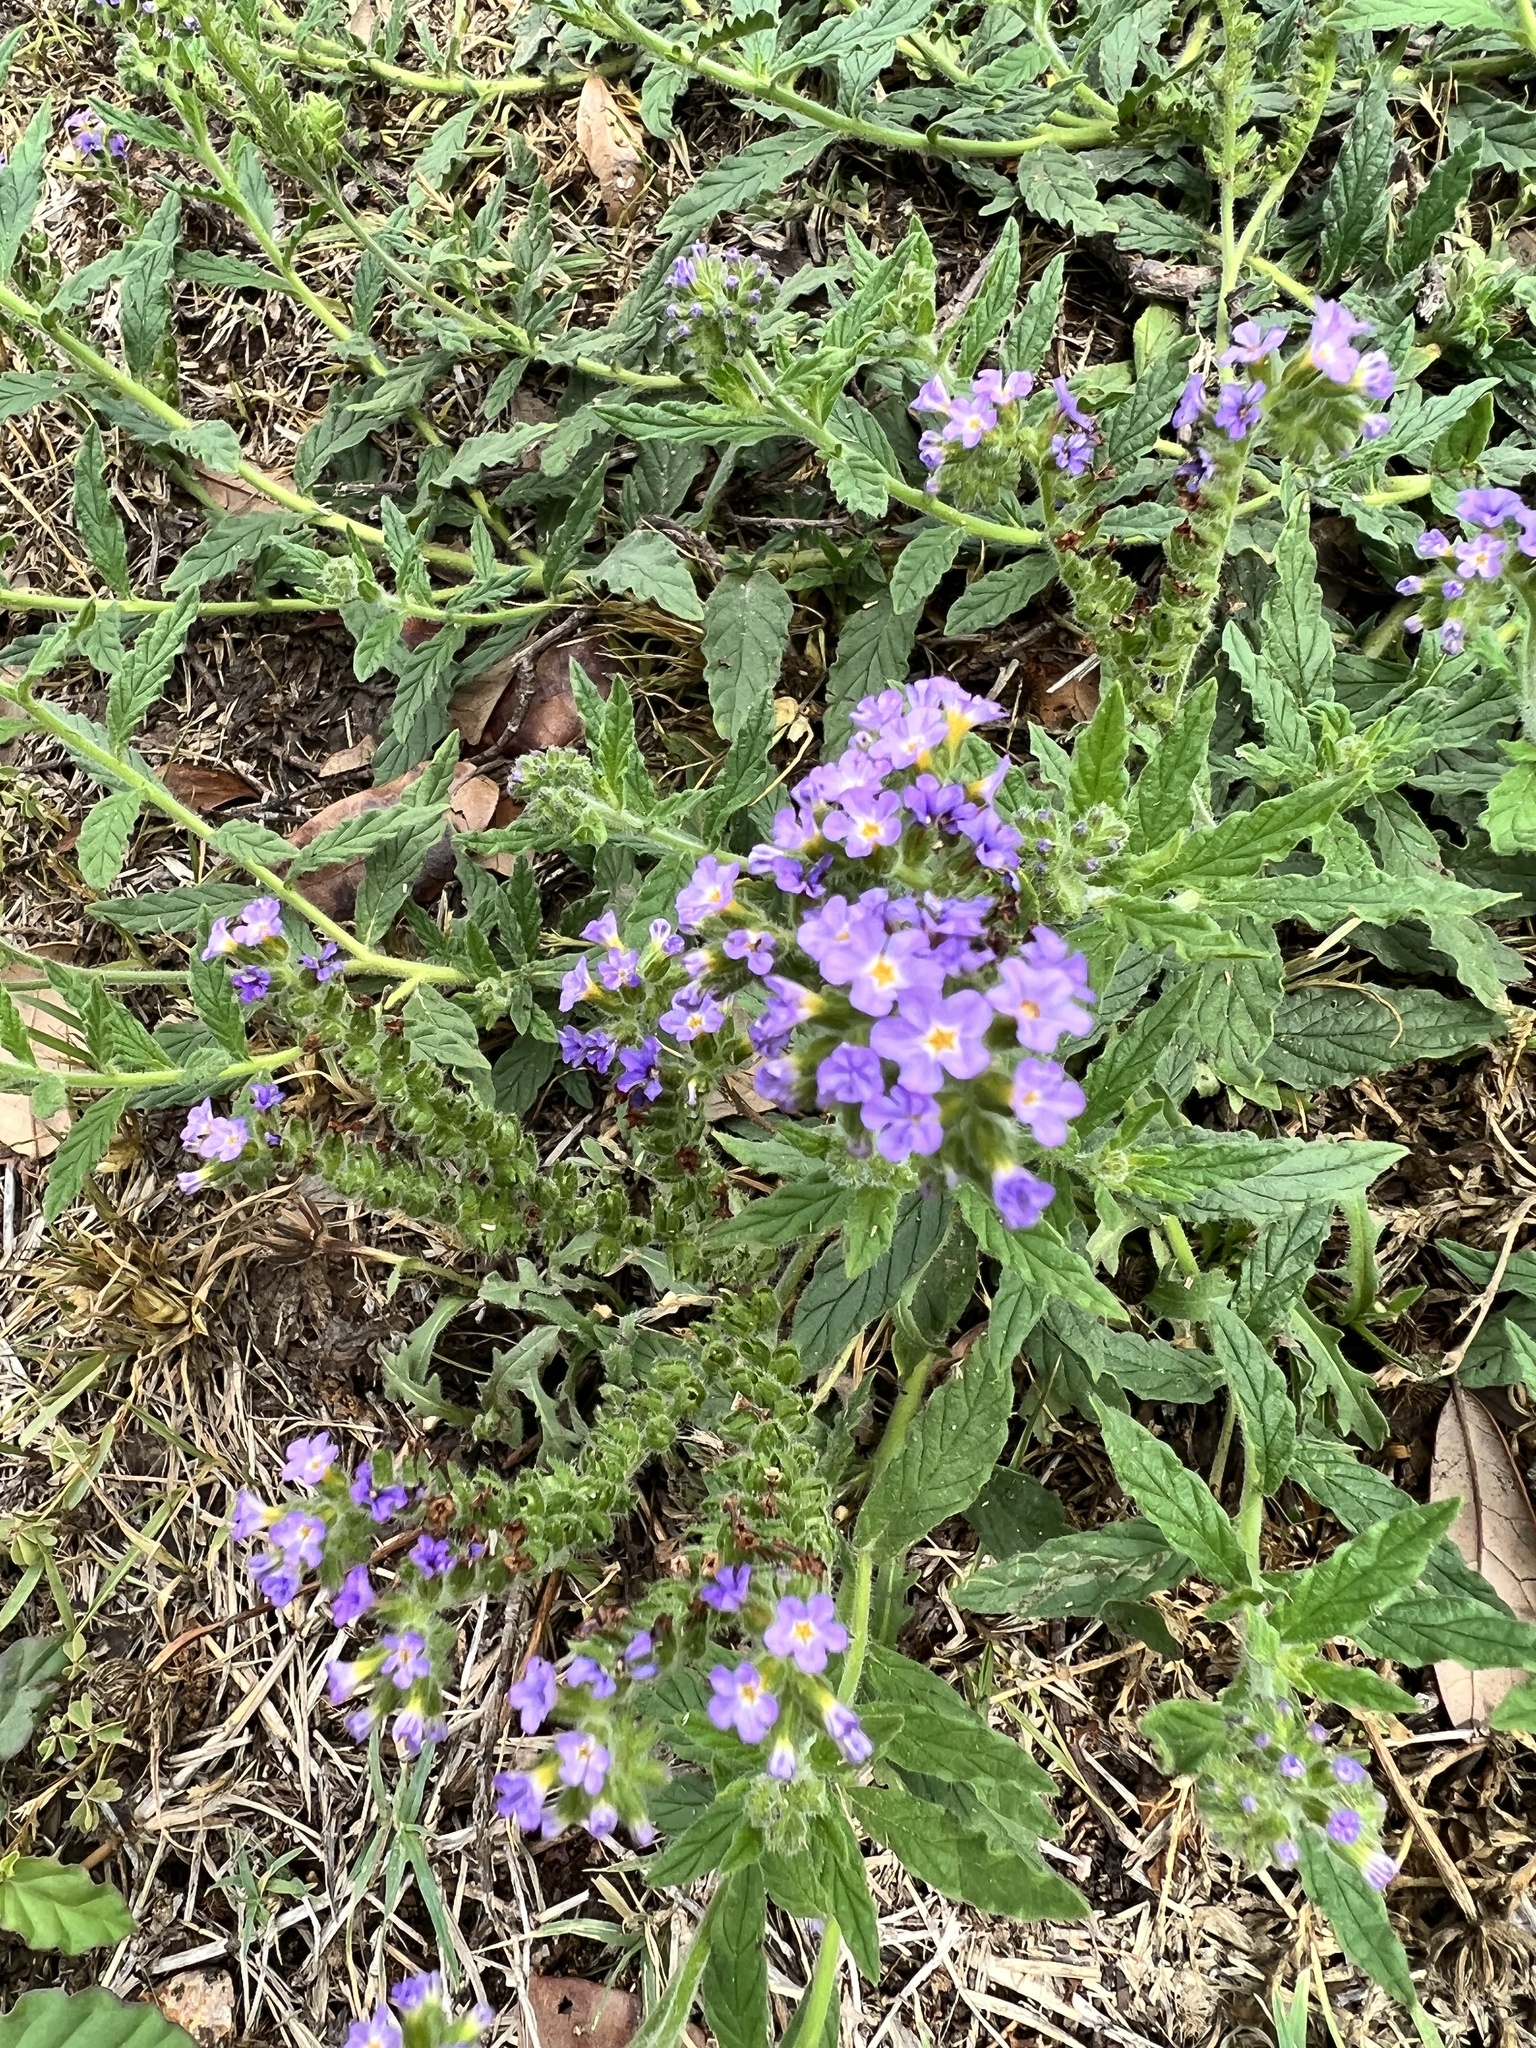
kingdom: Plantae
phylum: Tracheophyta
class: Magnoliopsida
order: Boraginales
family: Heliotropiaceae
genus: Heliotropium
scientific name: Heliotropium amplexicaule
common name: Clasping heliotrope
